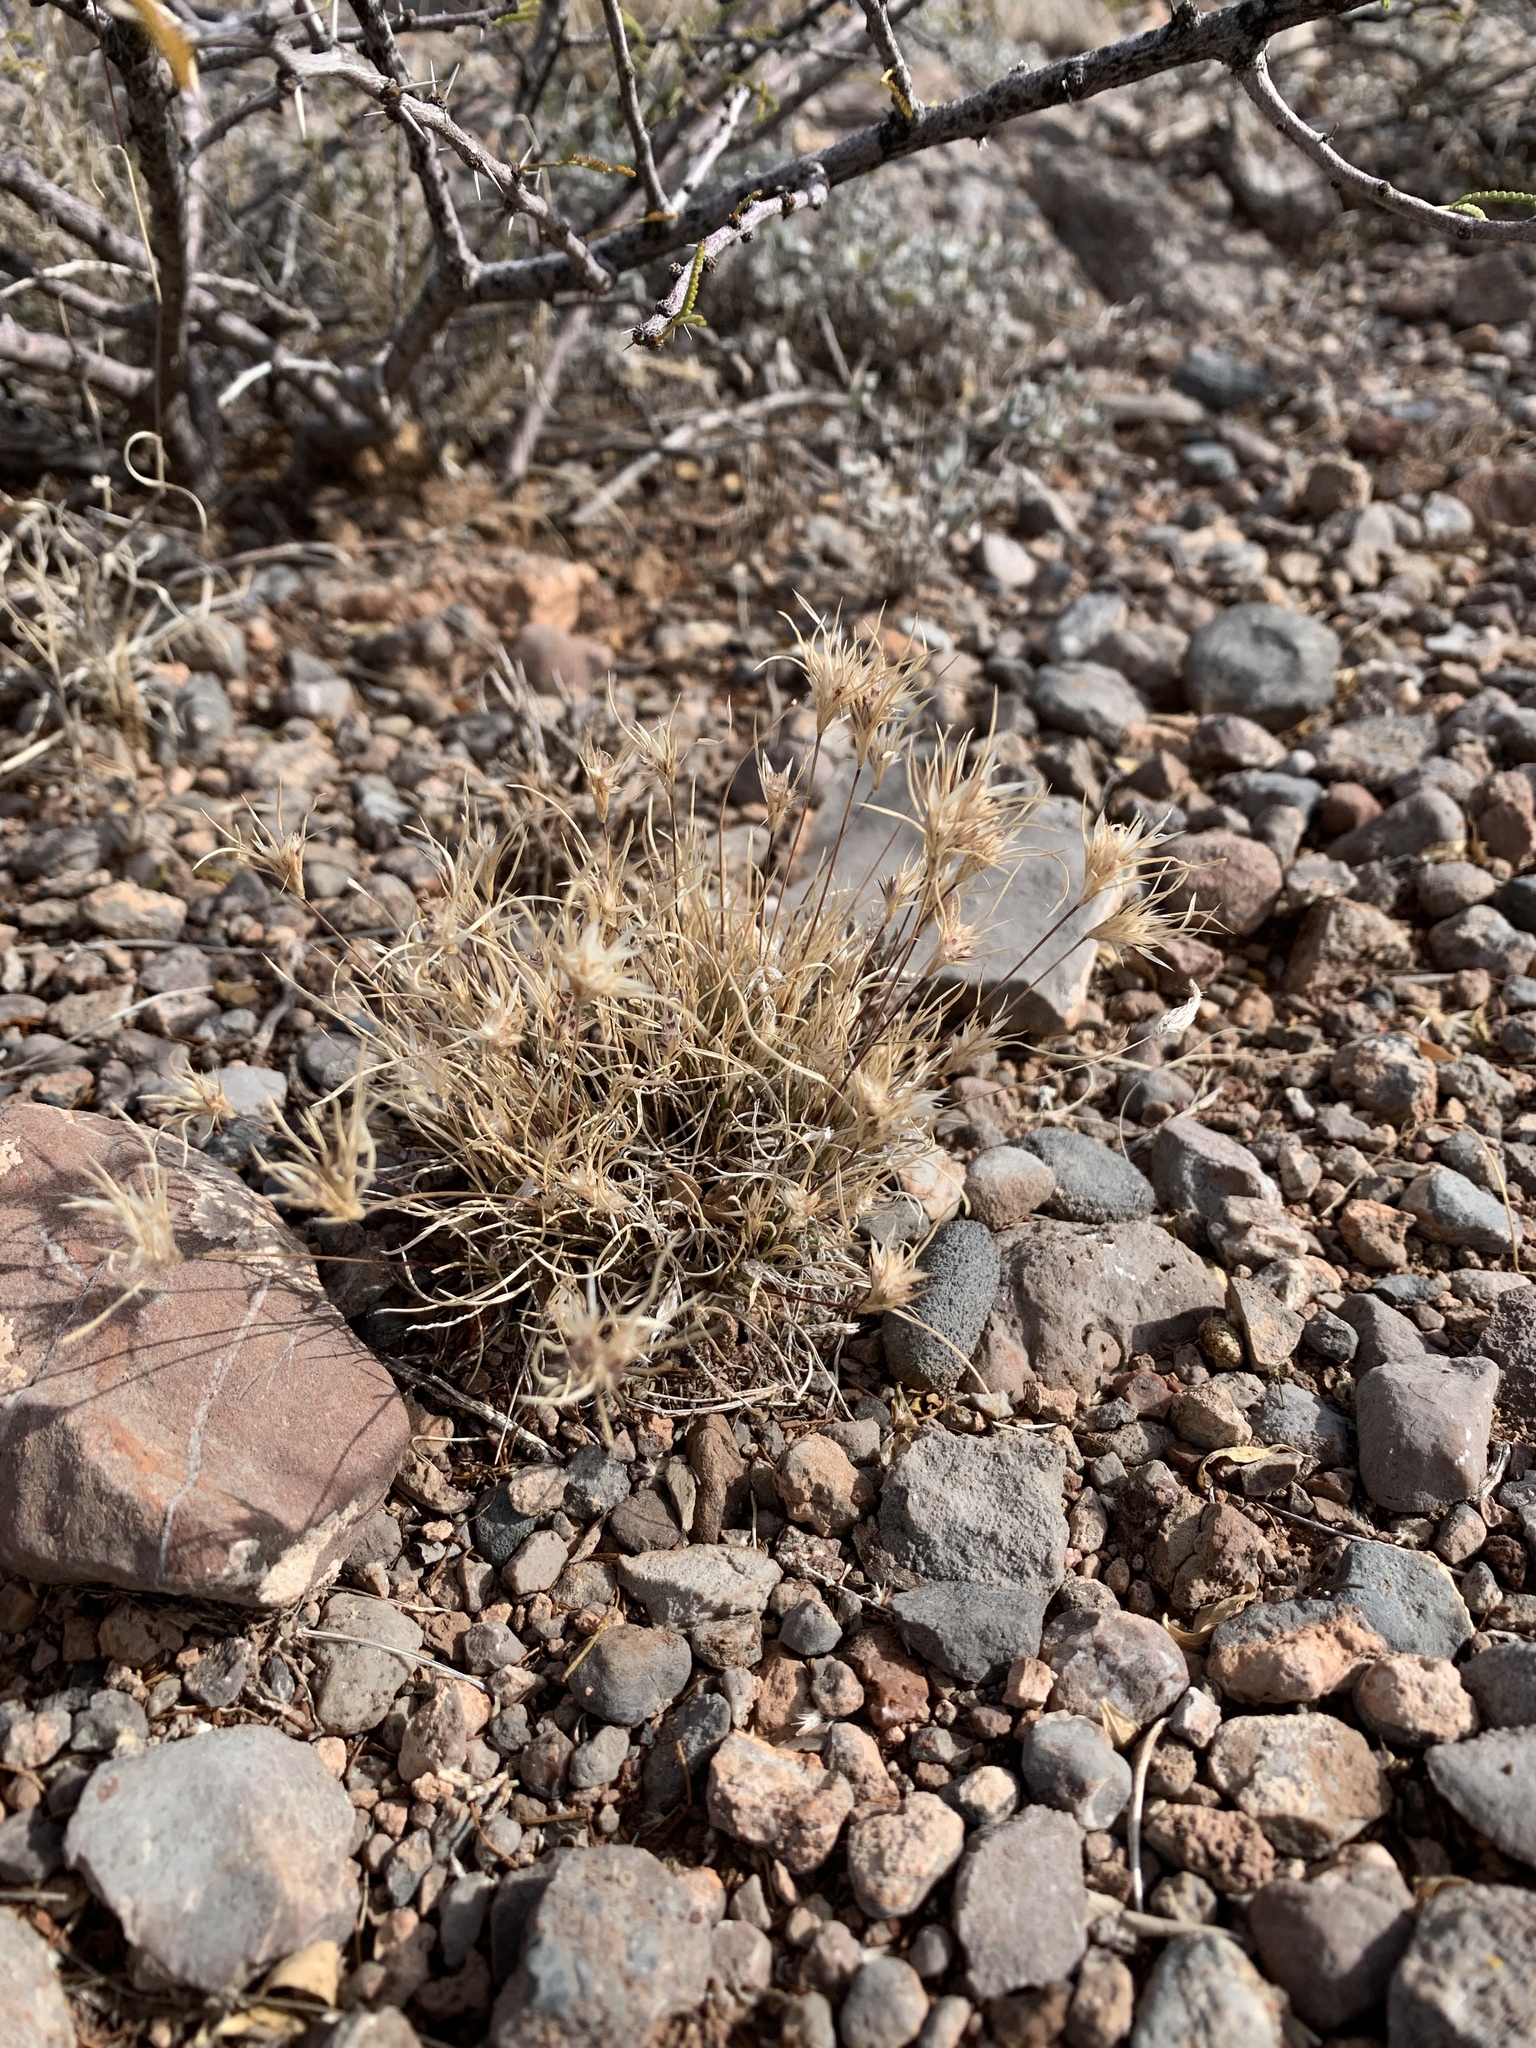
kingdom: Plantae
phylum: Tracheophyta
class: Liliopsida
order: Poales
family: Poaceae
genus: Dasyochloa
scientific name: Dasyochloa pulchella
